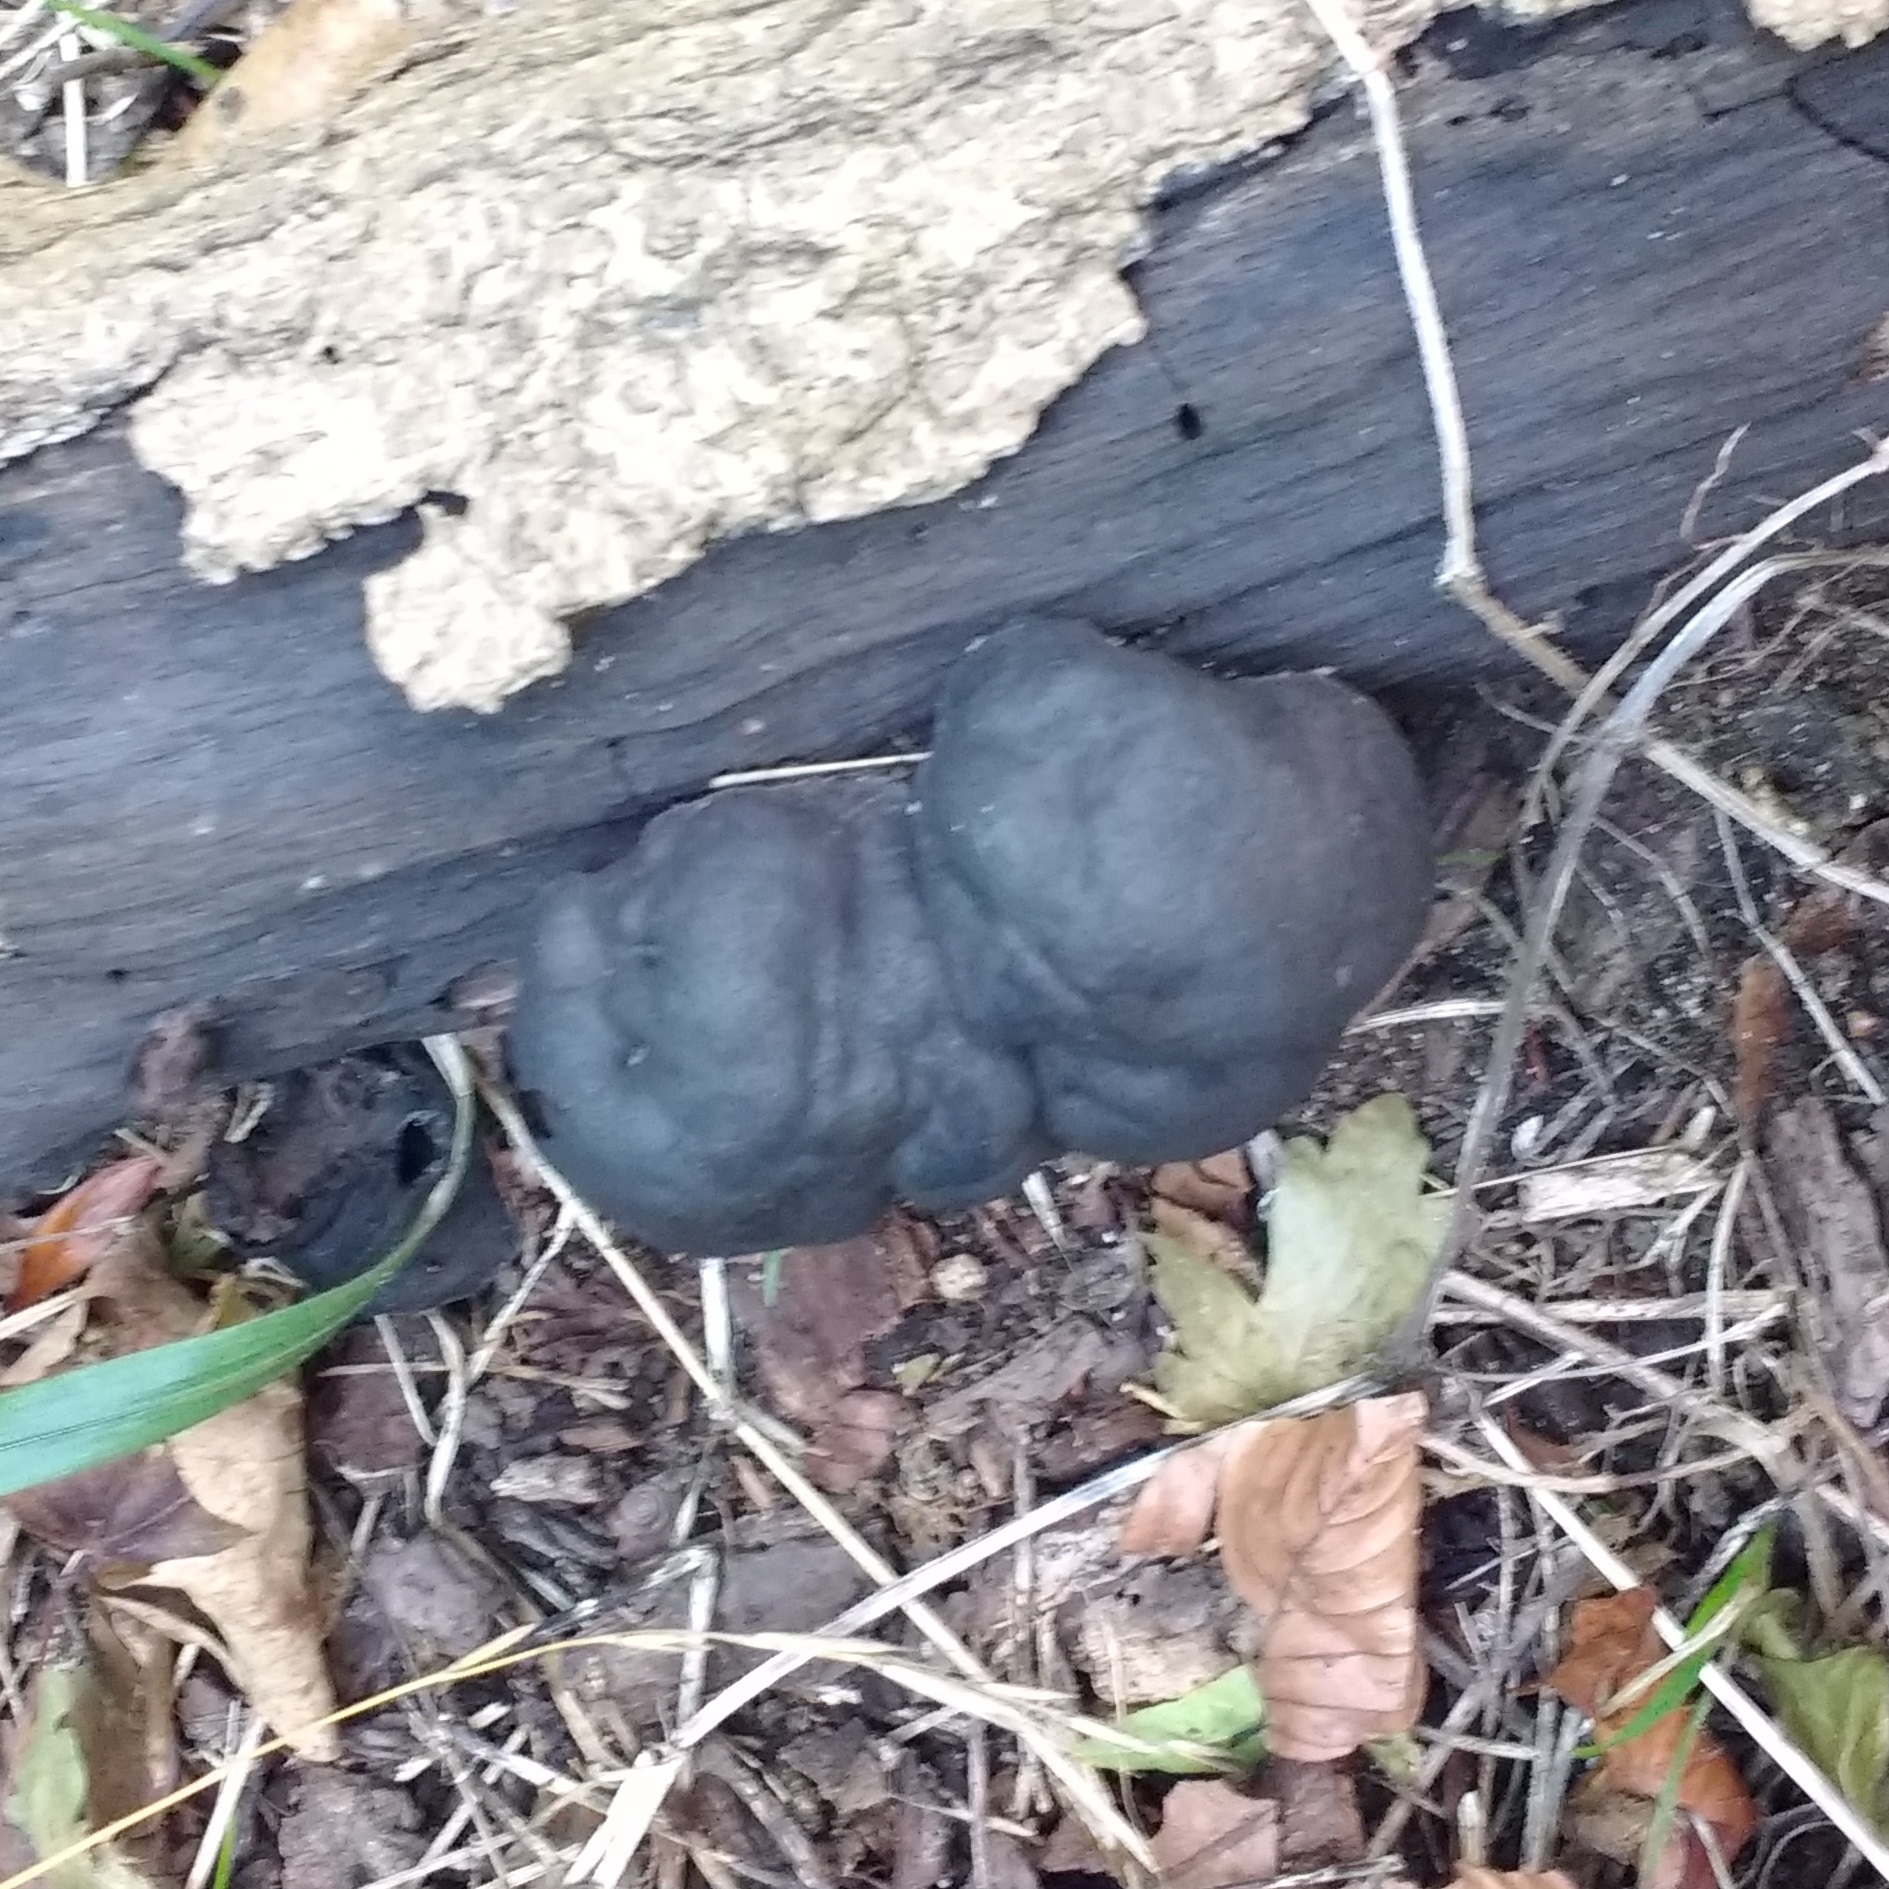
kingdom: Fungi
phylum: Ascomycota
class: Sordariomycetes
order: Xylariales
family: Hypoxylaceae
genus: Daldinia
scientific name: Daldinia concentrica
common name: Cramp balls
